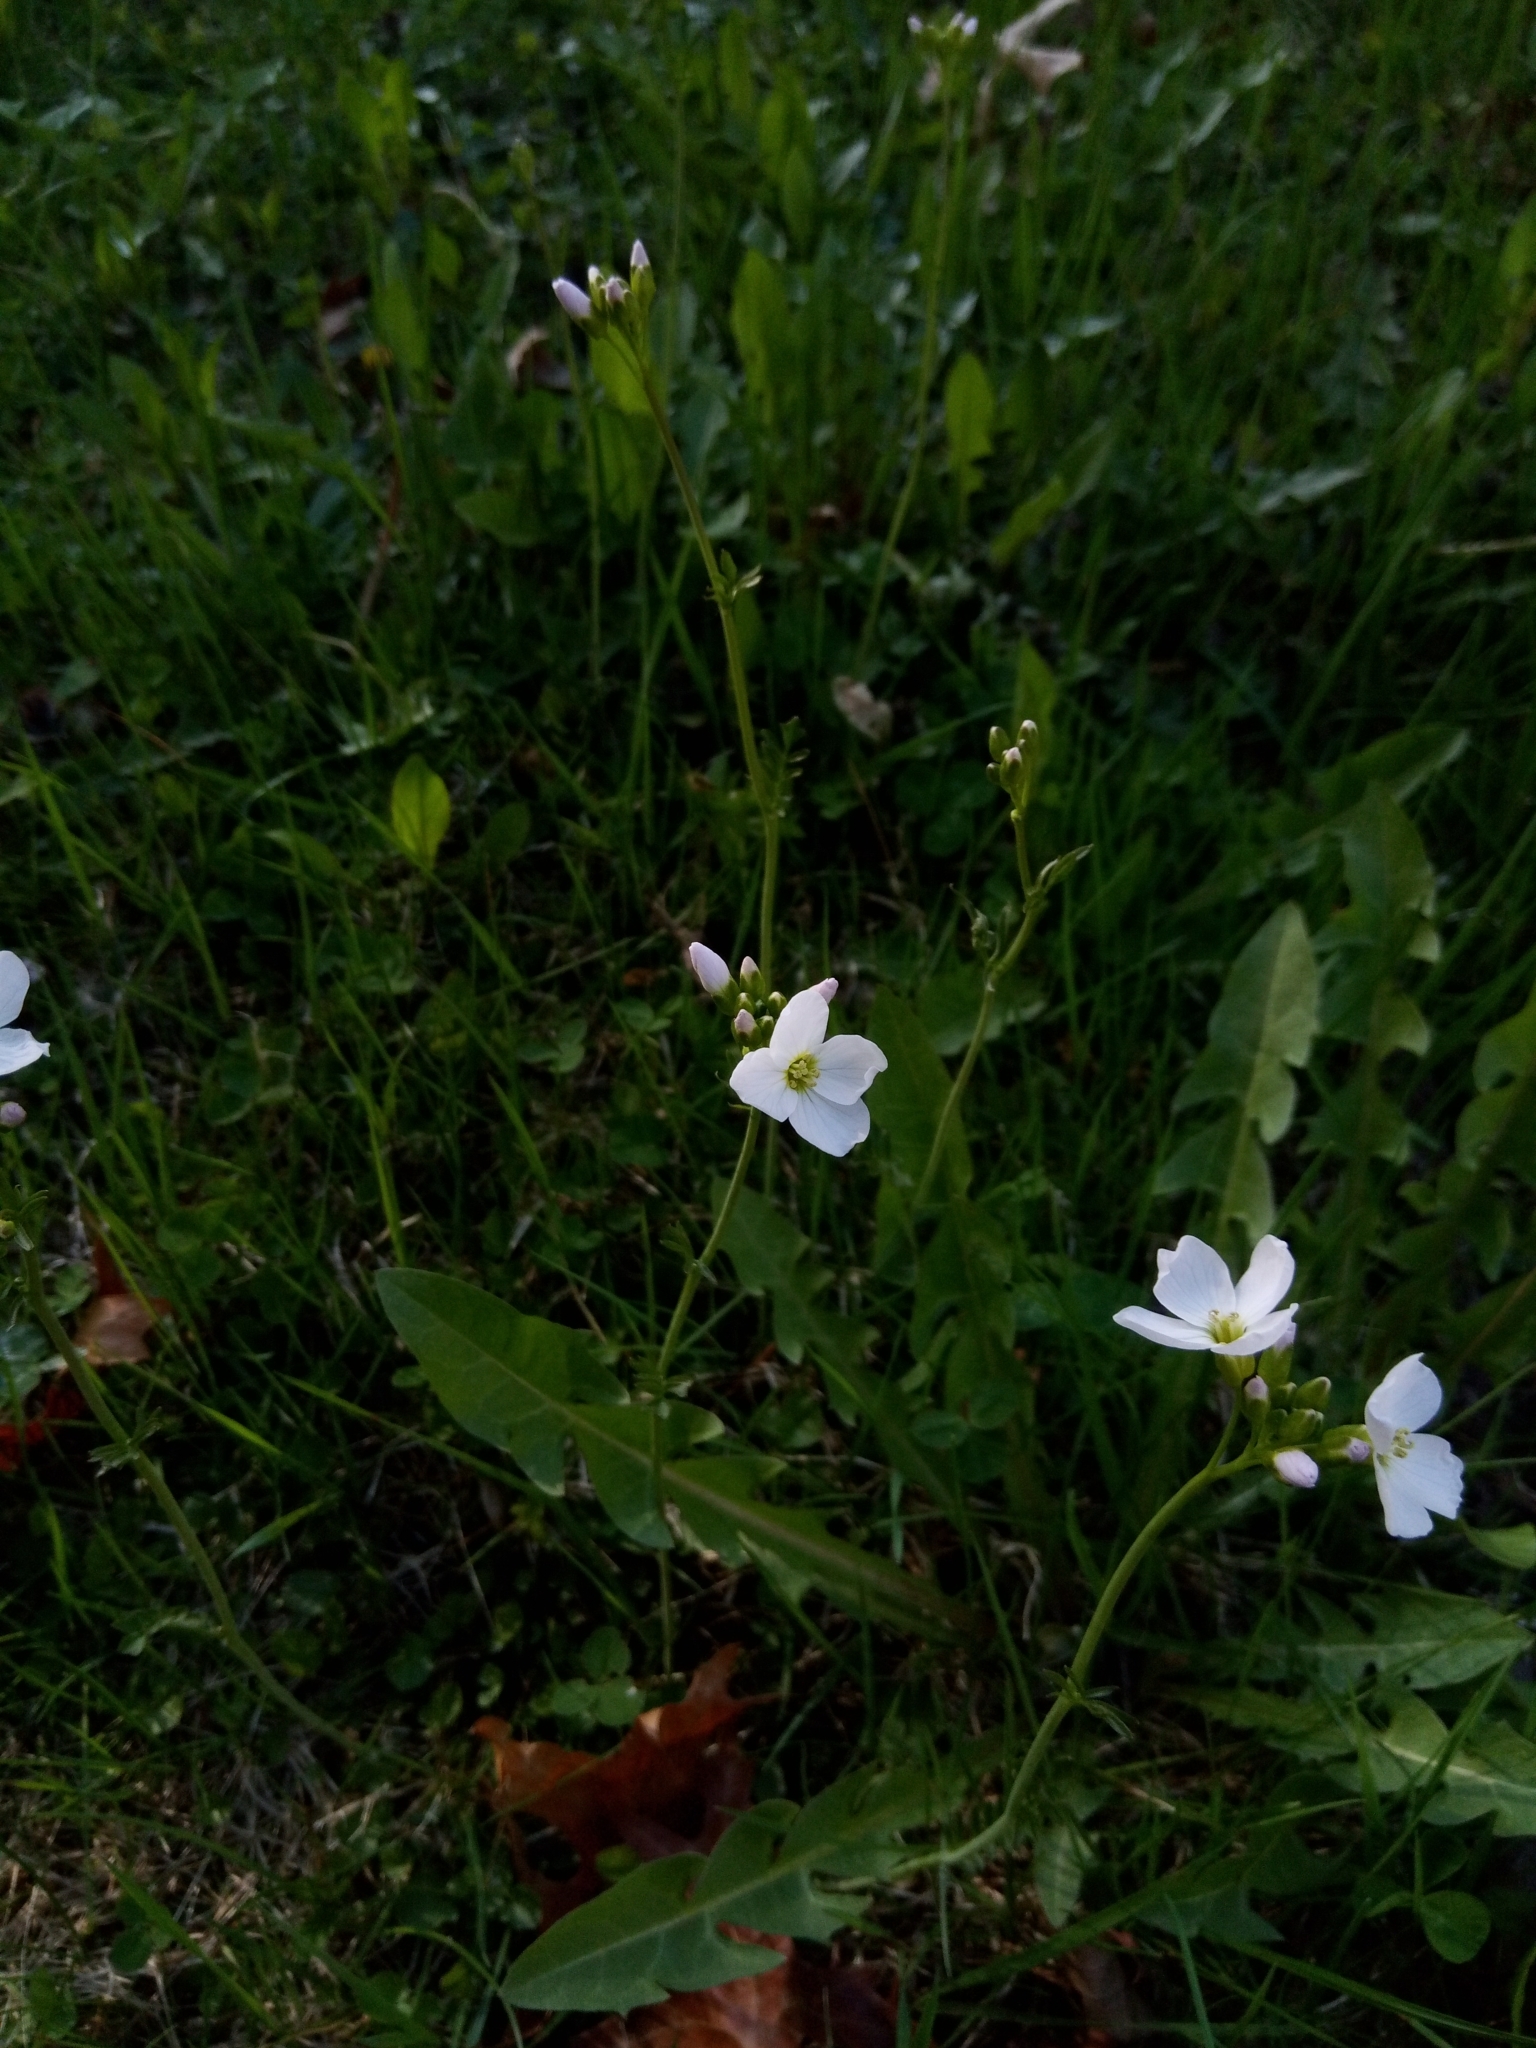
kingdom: Plantae
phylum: Tracheophyta
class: Magnoliopsida
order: Brassicales
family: Brassicaceae
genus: Cardamine
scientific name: Cardamine pratensis
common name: Cuckoo flower
